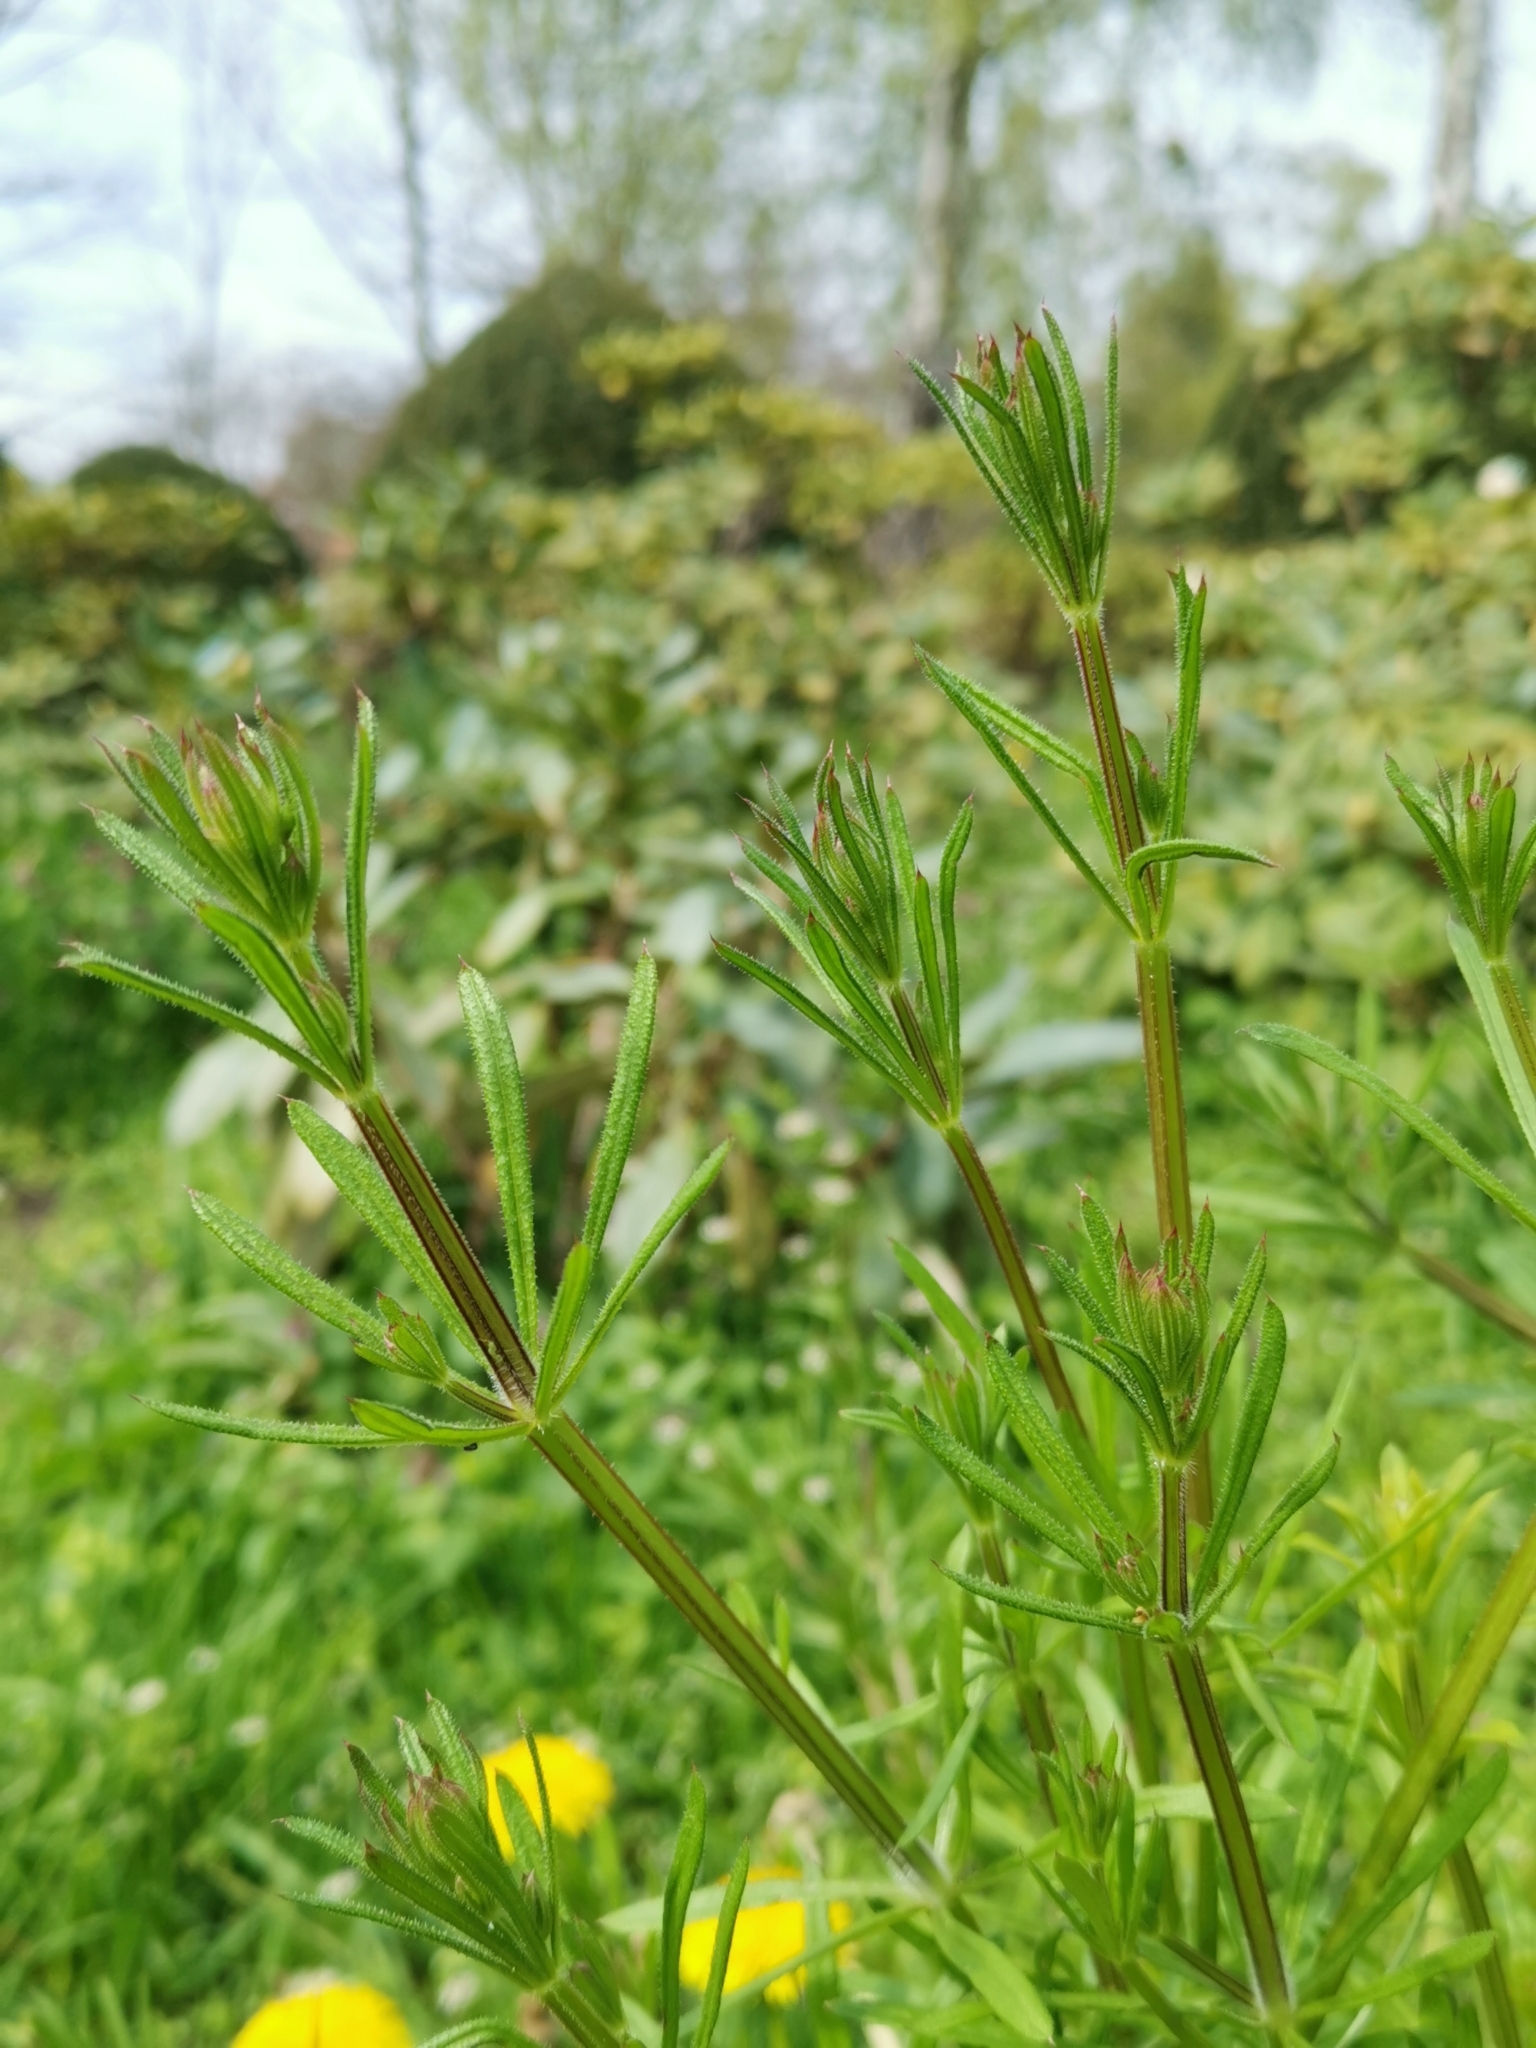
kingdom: Plantae
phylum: Tracheophyta
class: Magnoliopsida
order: Gentianales
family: Rubiaceae
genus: Galium
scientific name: Galium aparine
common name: Cleavers
